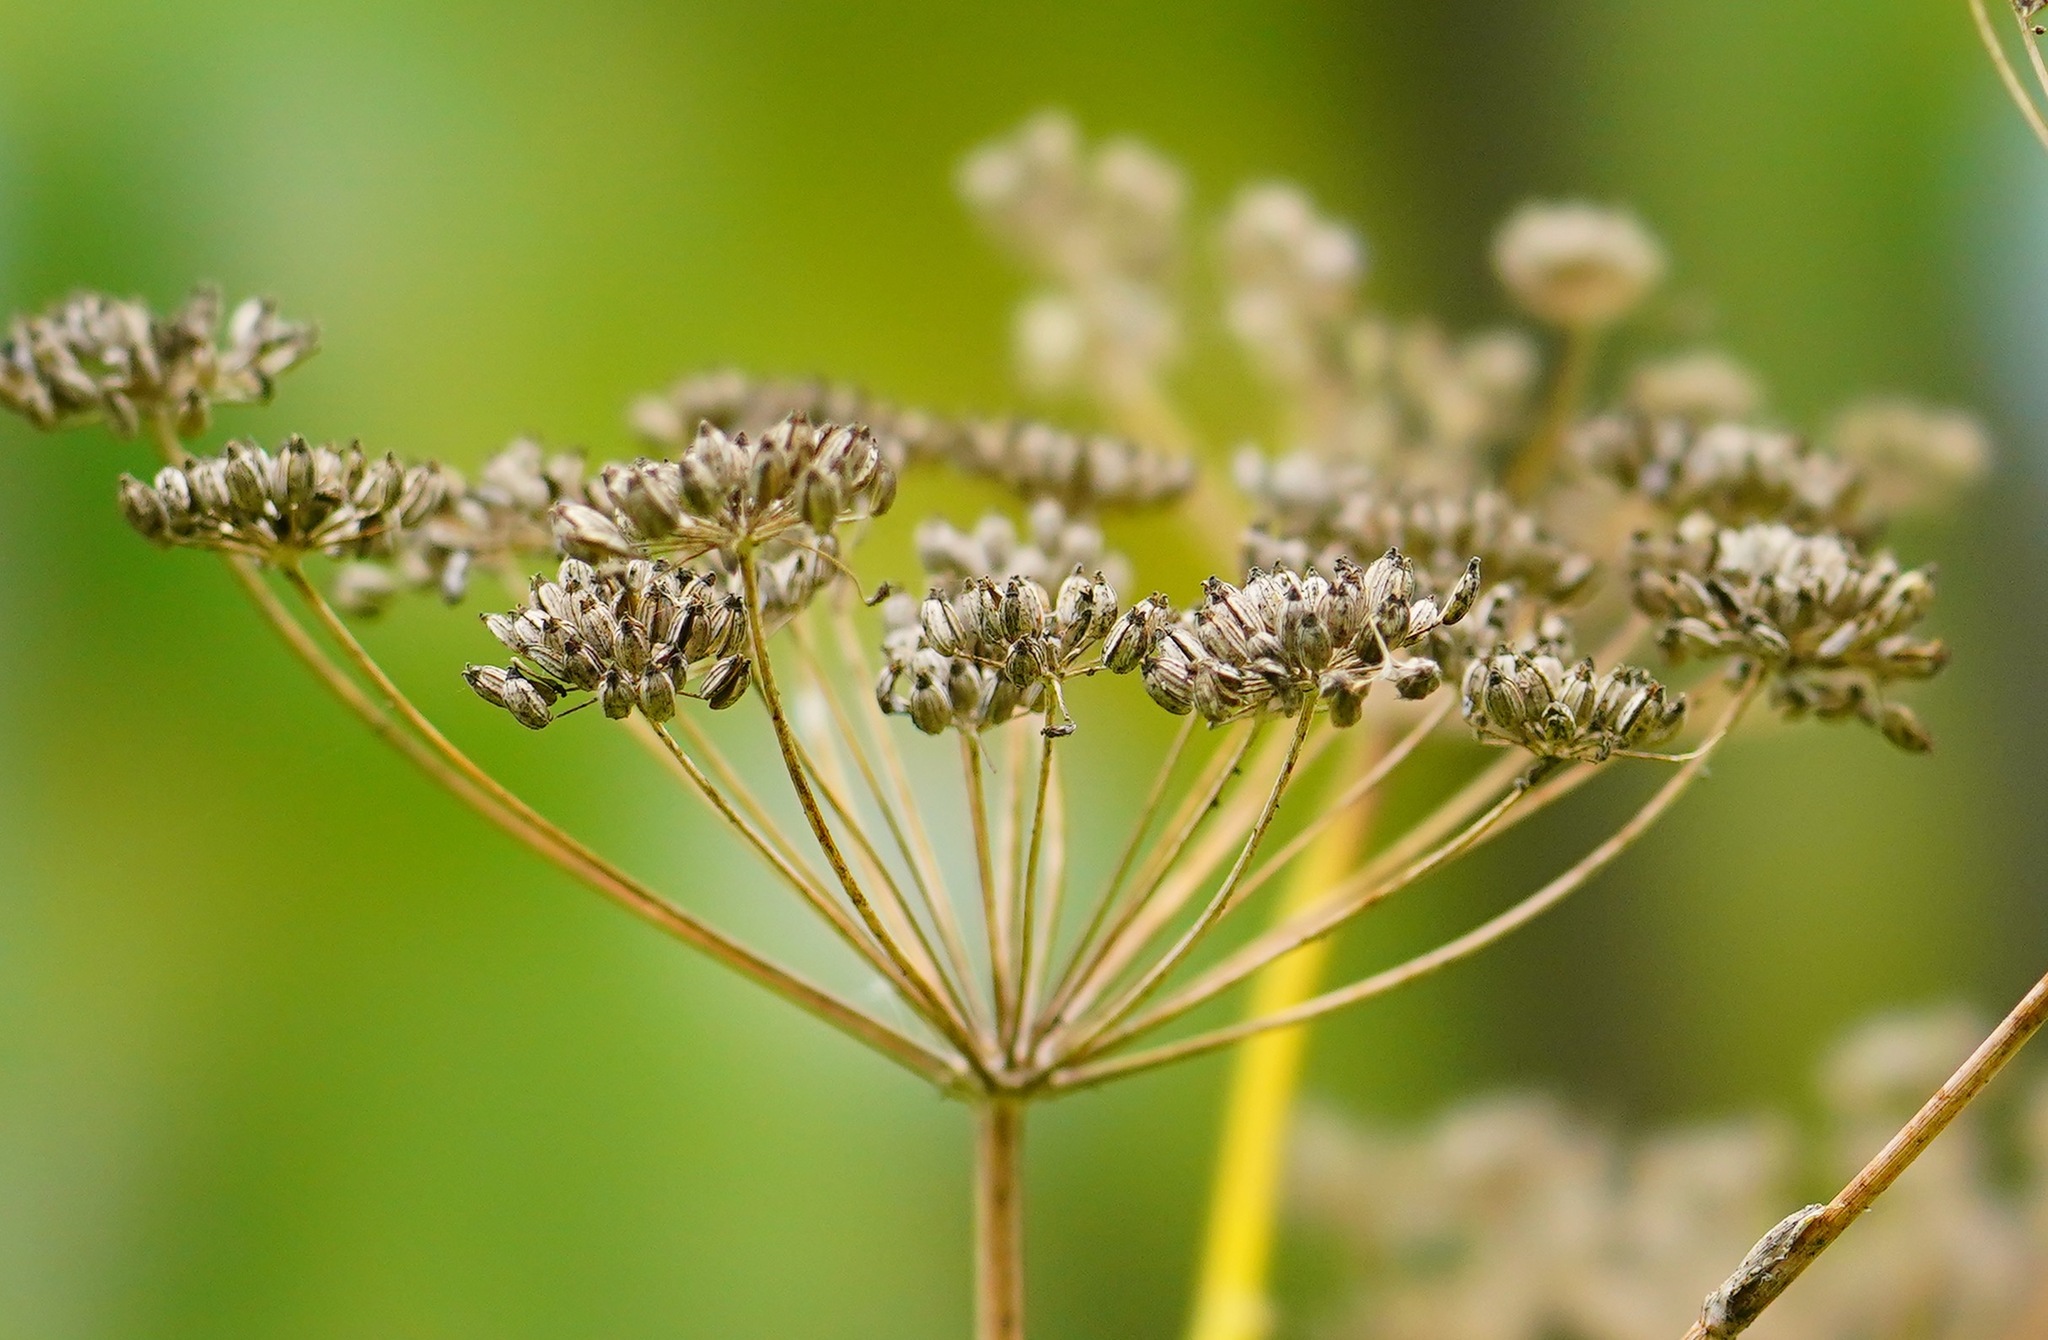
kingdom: Plantae
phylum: Tracheophyta
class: Magnoliopsida
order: Apiales
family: Apiaceae
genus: Foeniculum
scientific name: Foeniculum vulgare
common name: Fennel
